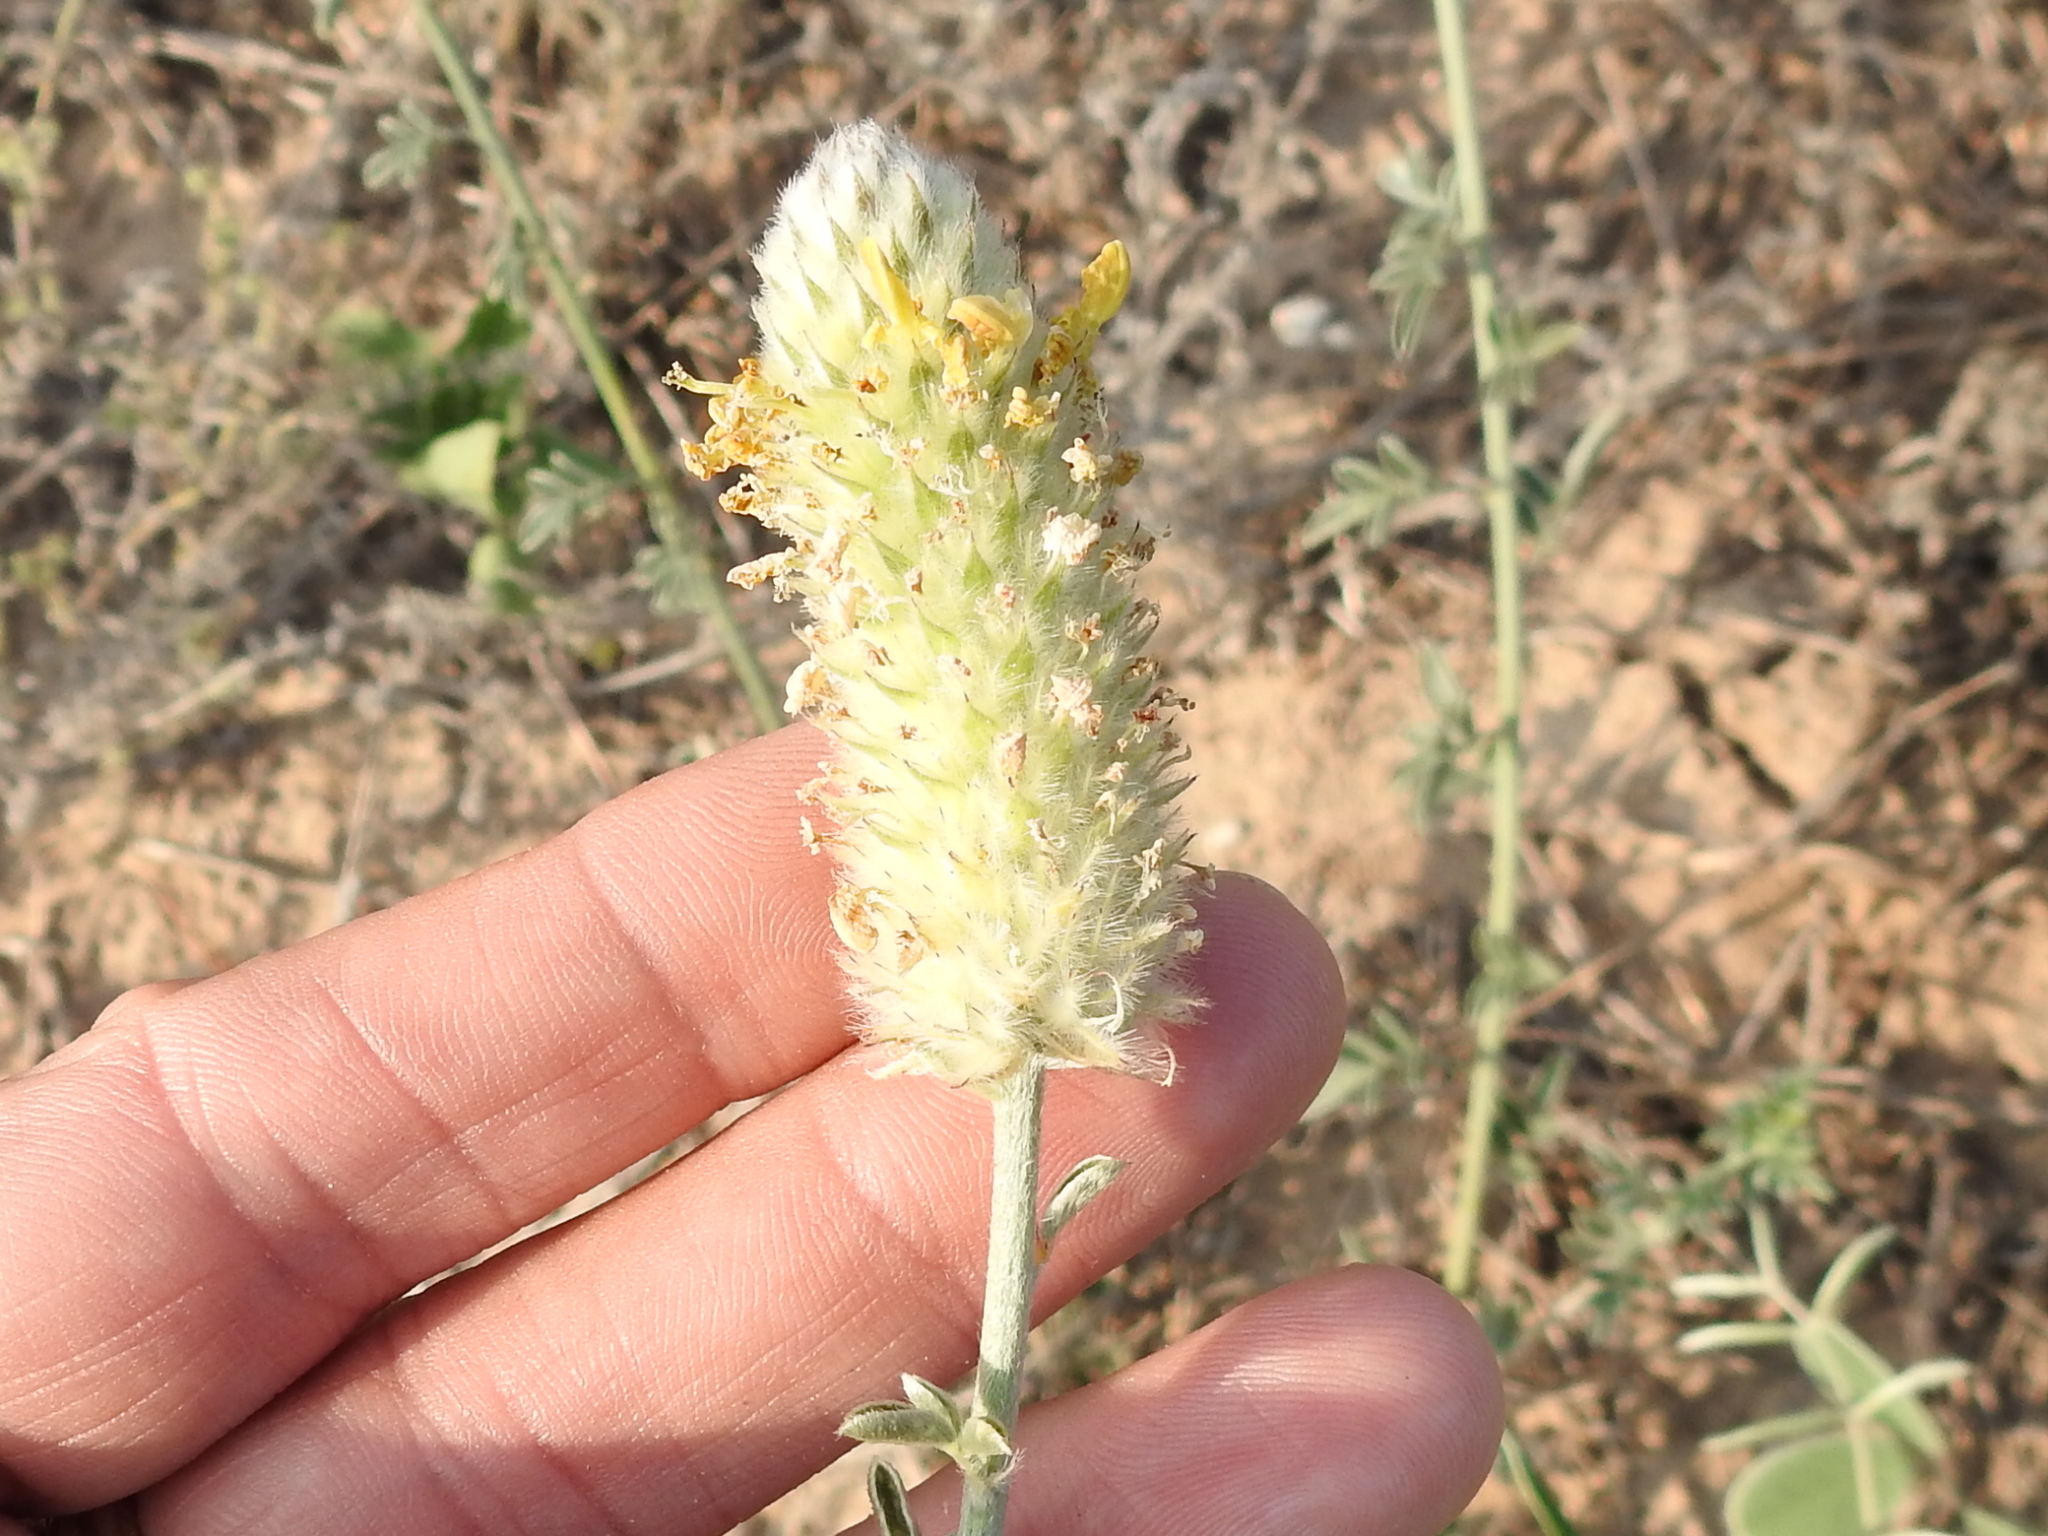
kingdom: Plantae
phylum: Tracheophyta
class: Magnoliopsida
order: Fabales
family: Fabaceae
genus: Dalea
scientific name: Dalea aurea
